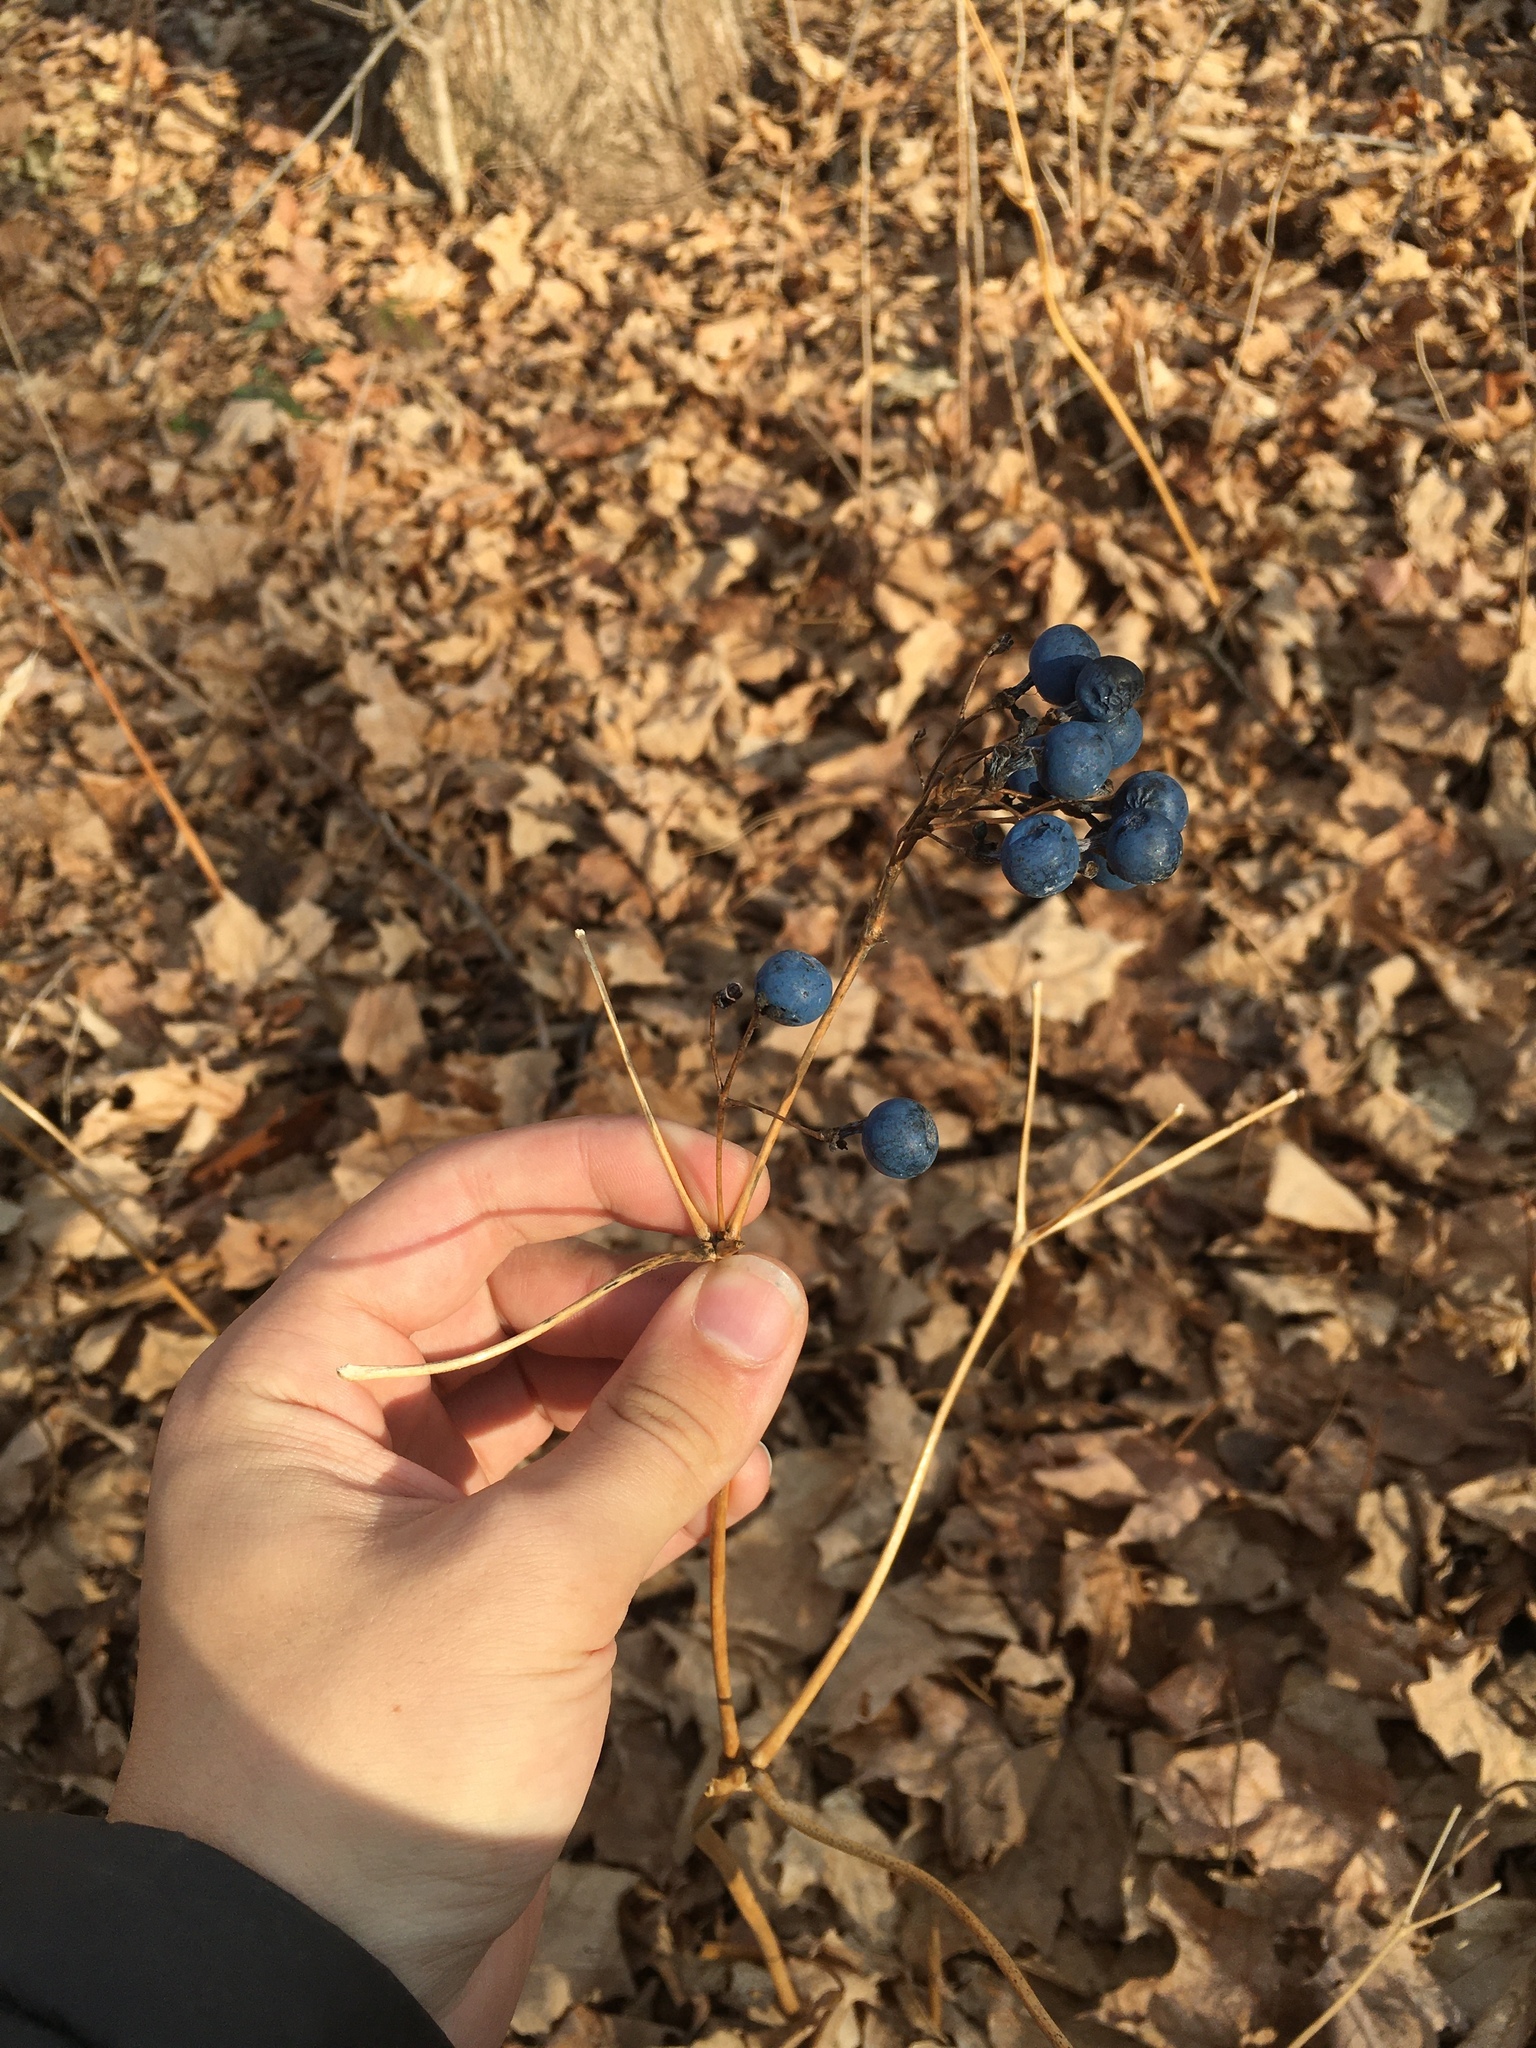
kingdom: Plantae
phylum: Tracheophyta
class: Magnoliopsida
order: Ranunculales
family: Berberidaceae
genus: Caulophyllum
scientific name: Caulophyllum thalictroides
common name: Blue cohosh
